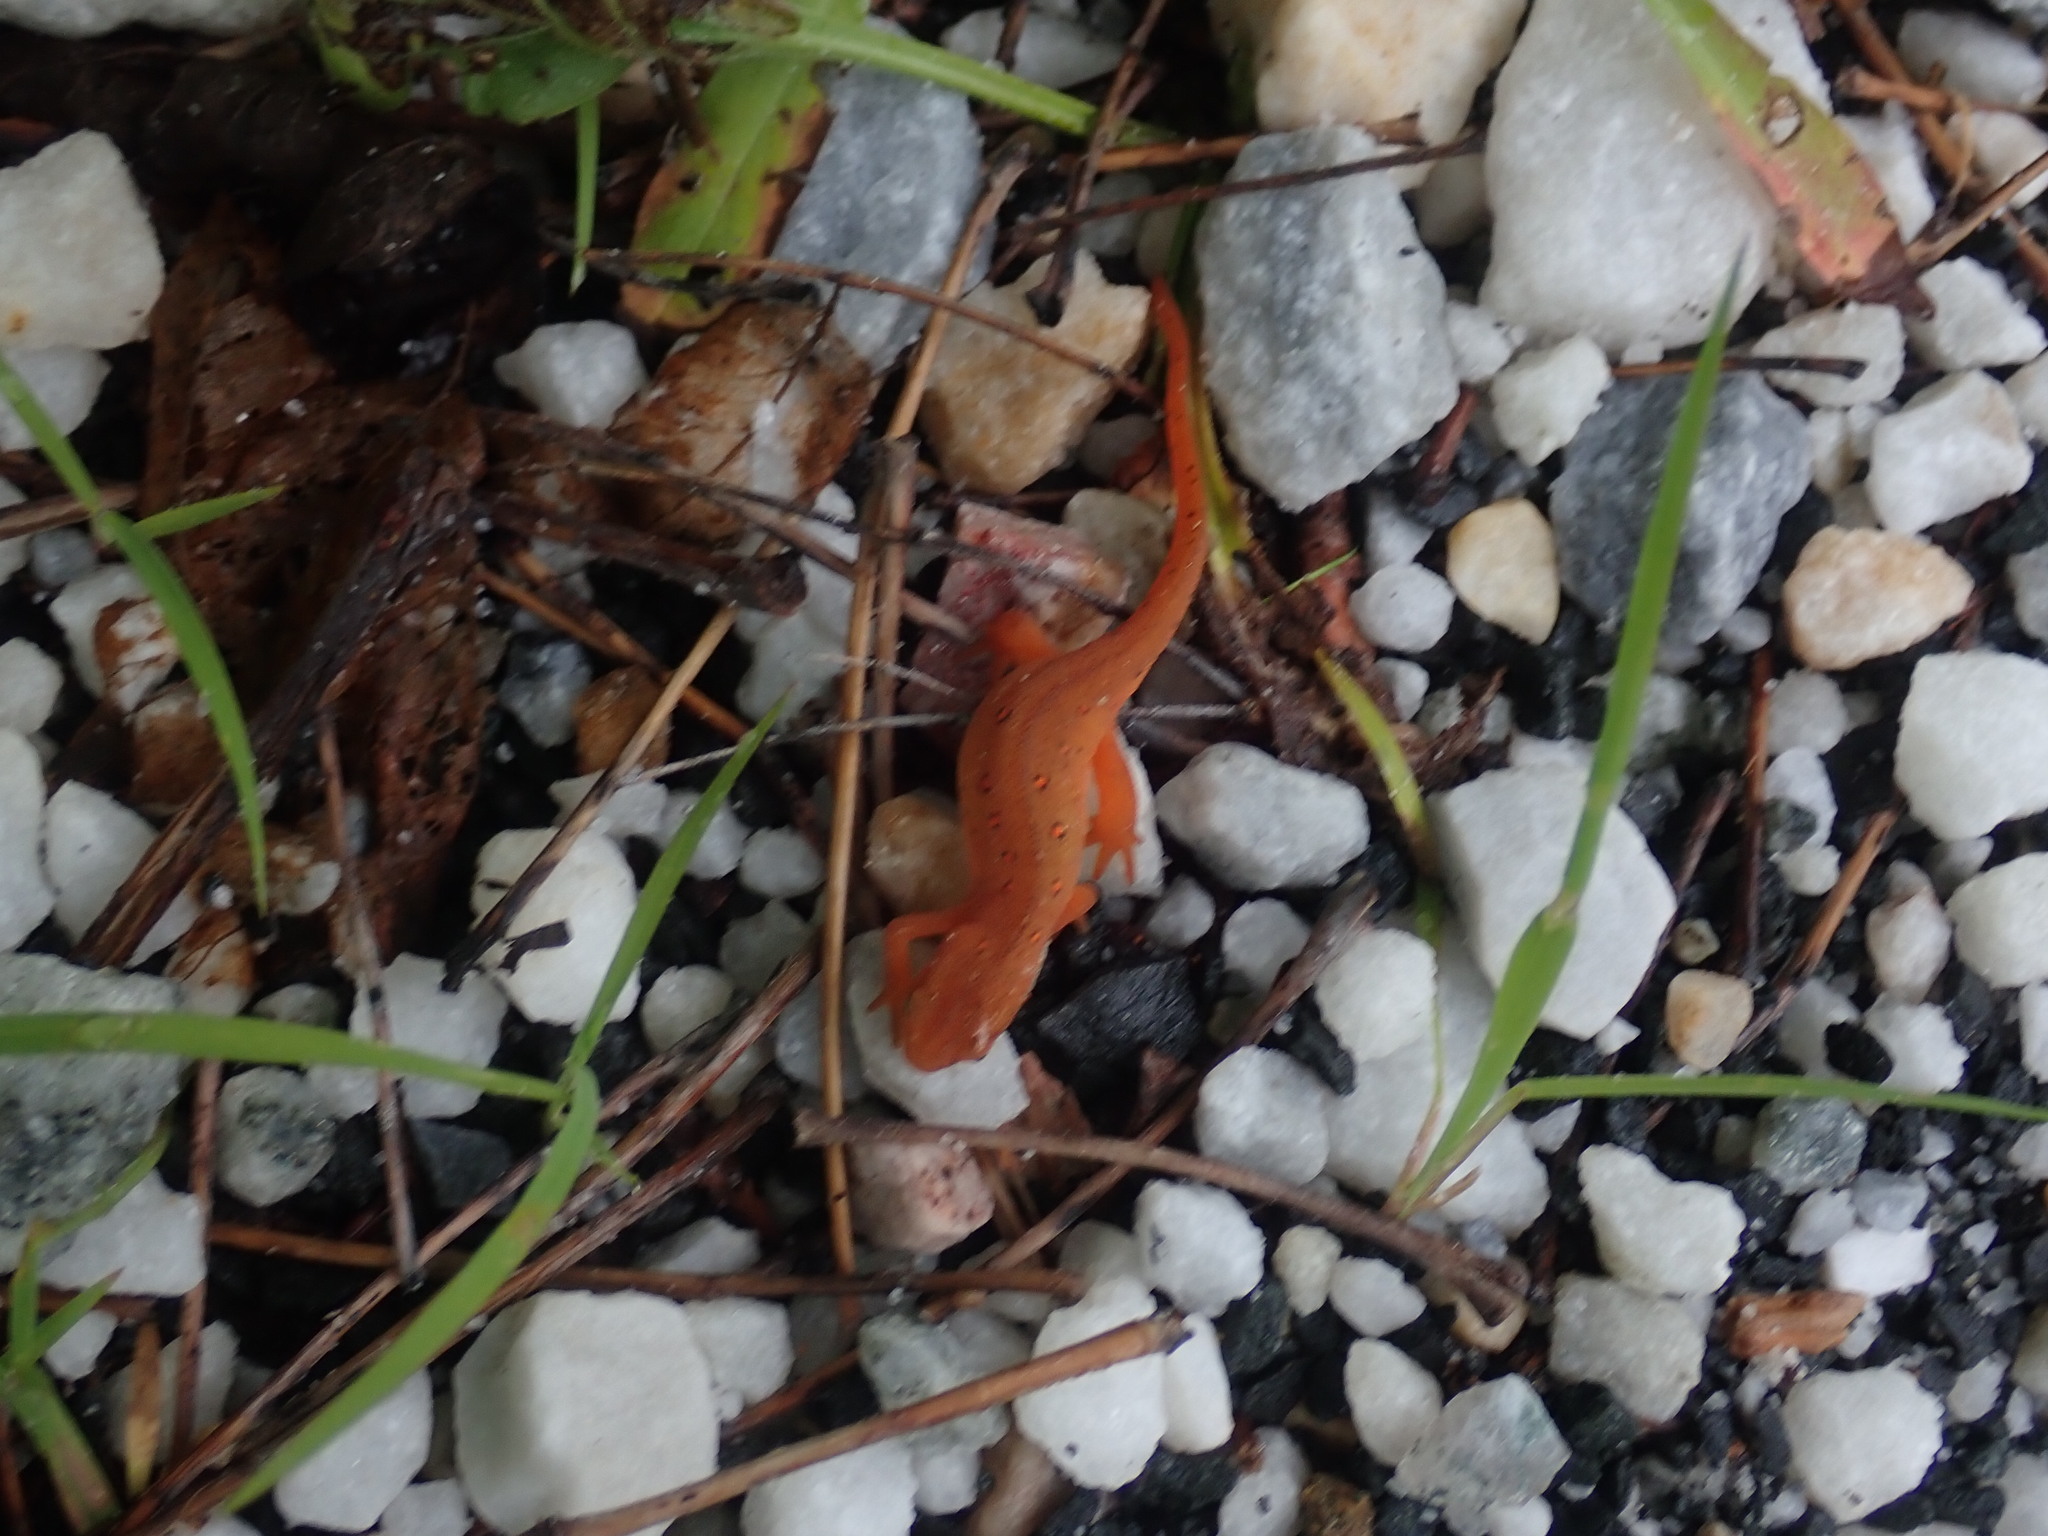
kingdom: Animalia
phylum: Chordata
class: Amphibia
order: Caudata
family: Salamandridae
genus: Notophthalmus
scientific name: Notophthalmus viridescens
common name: Eastern newt
